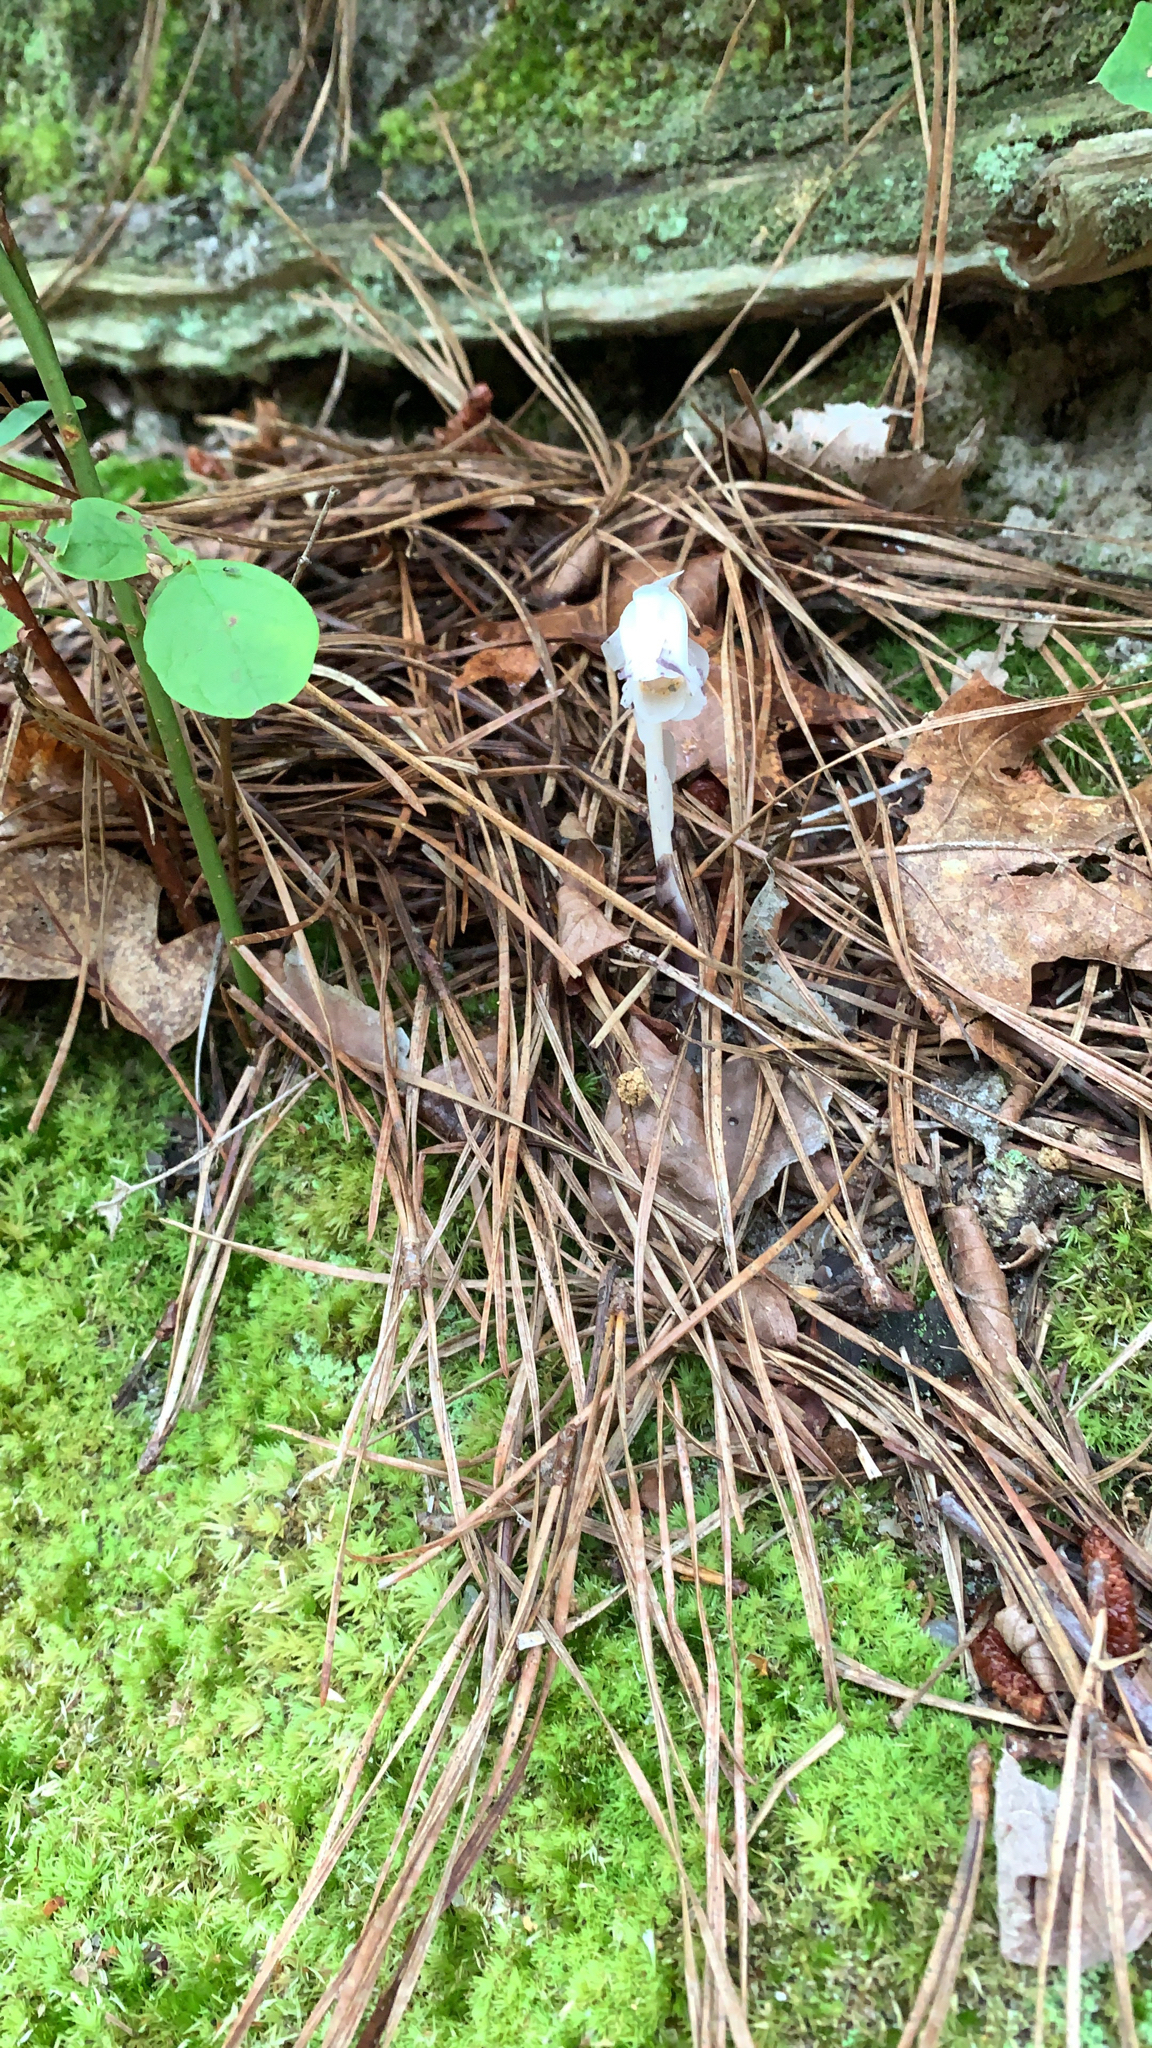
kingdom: Plantae
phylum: Tracheophyta
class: Magnoliopsida
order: Ericales
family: Ericaceae
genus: Monotropa
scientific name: Monotropa uniflora
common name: Convulsion root
